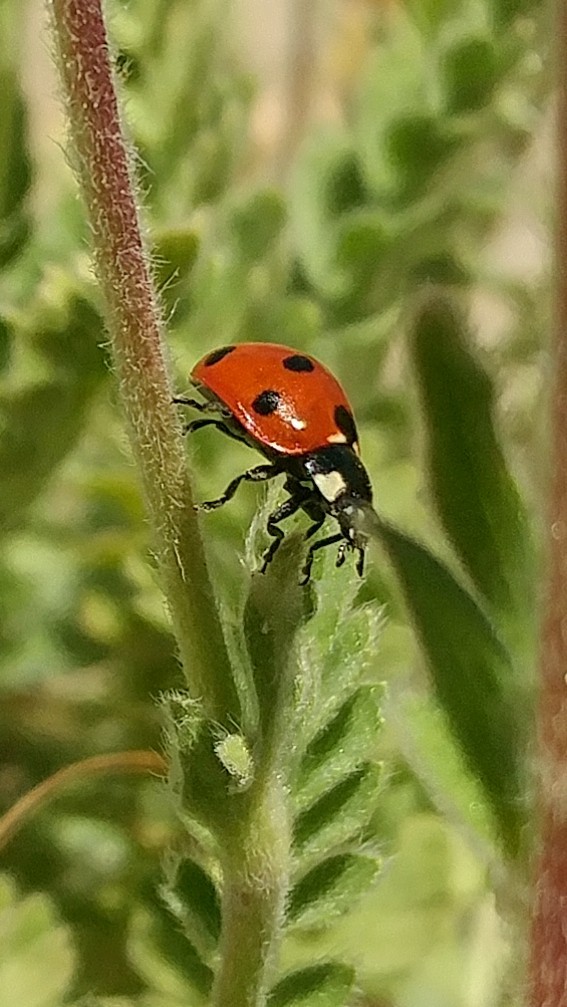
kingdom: Animalia
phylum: Arthropoda
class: Insecta
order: Coleoptera
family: Coccinellidae
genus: Coccinella
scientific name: Coccinella septempunctata
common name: Sevenspotted lady beetle
